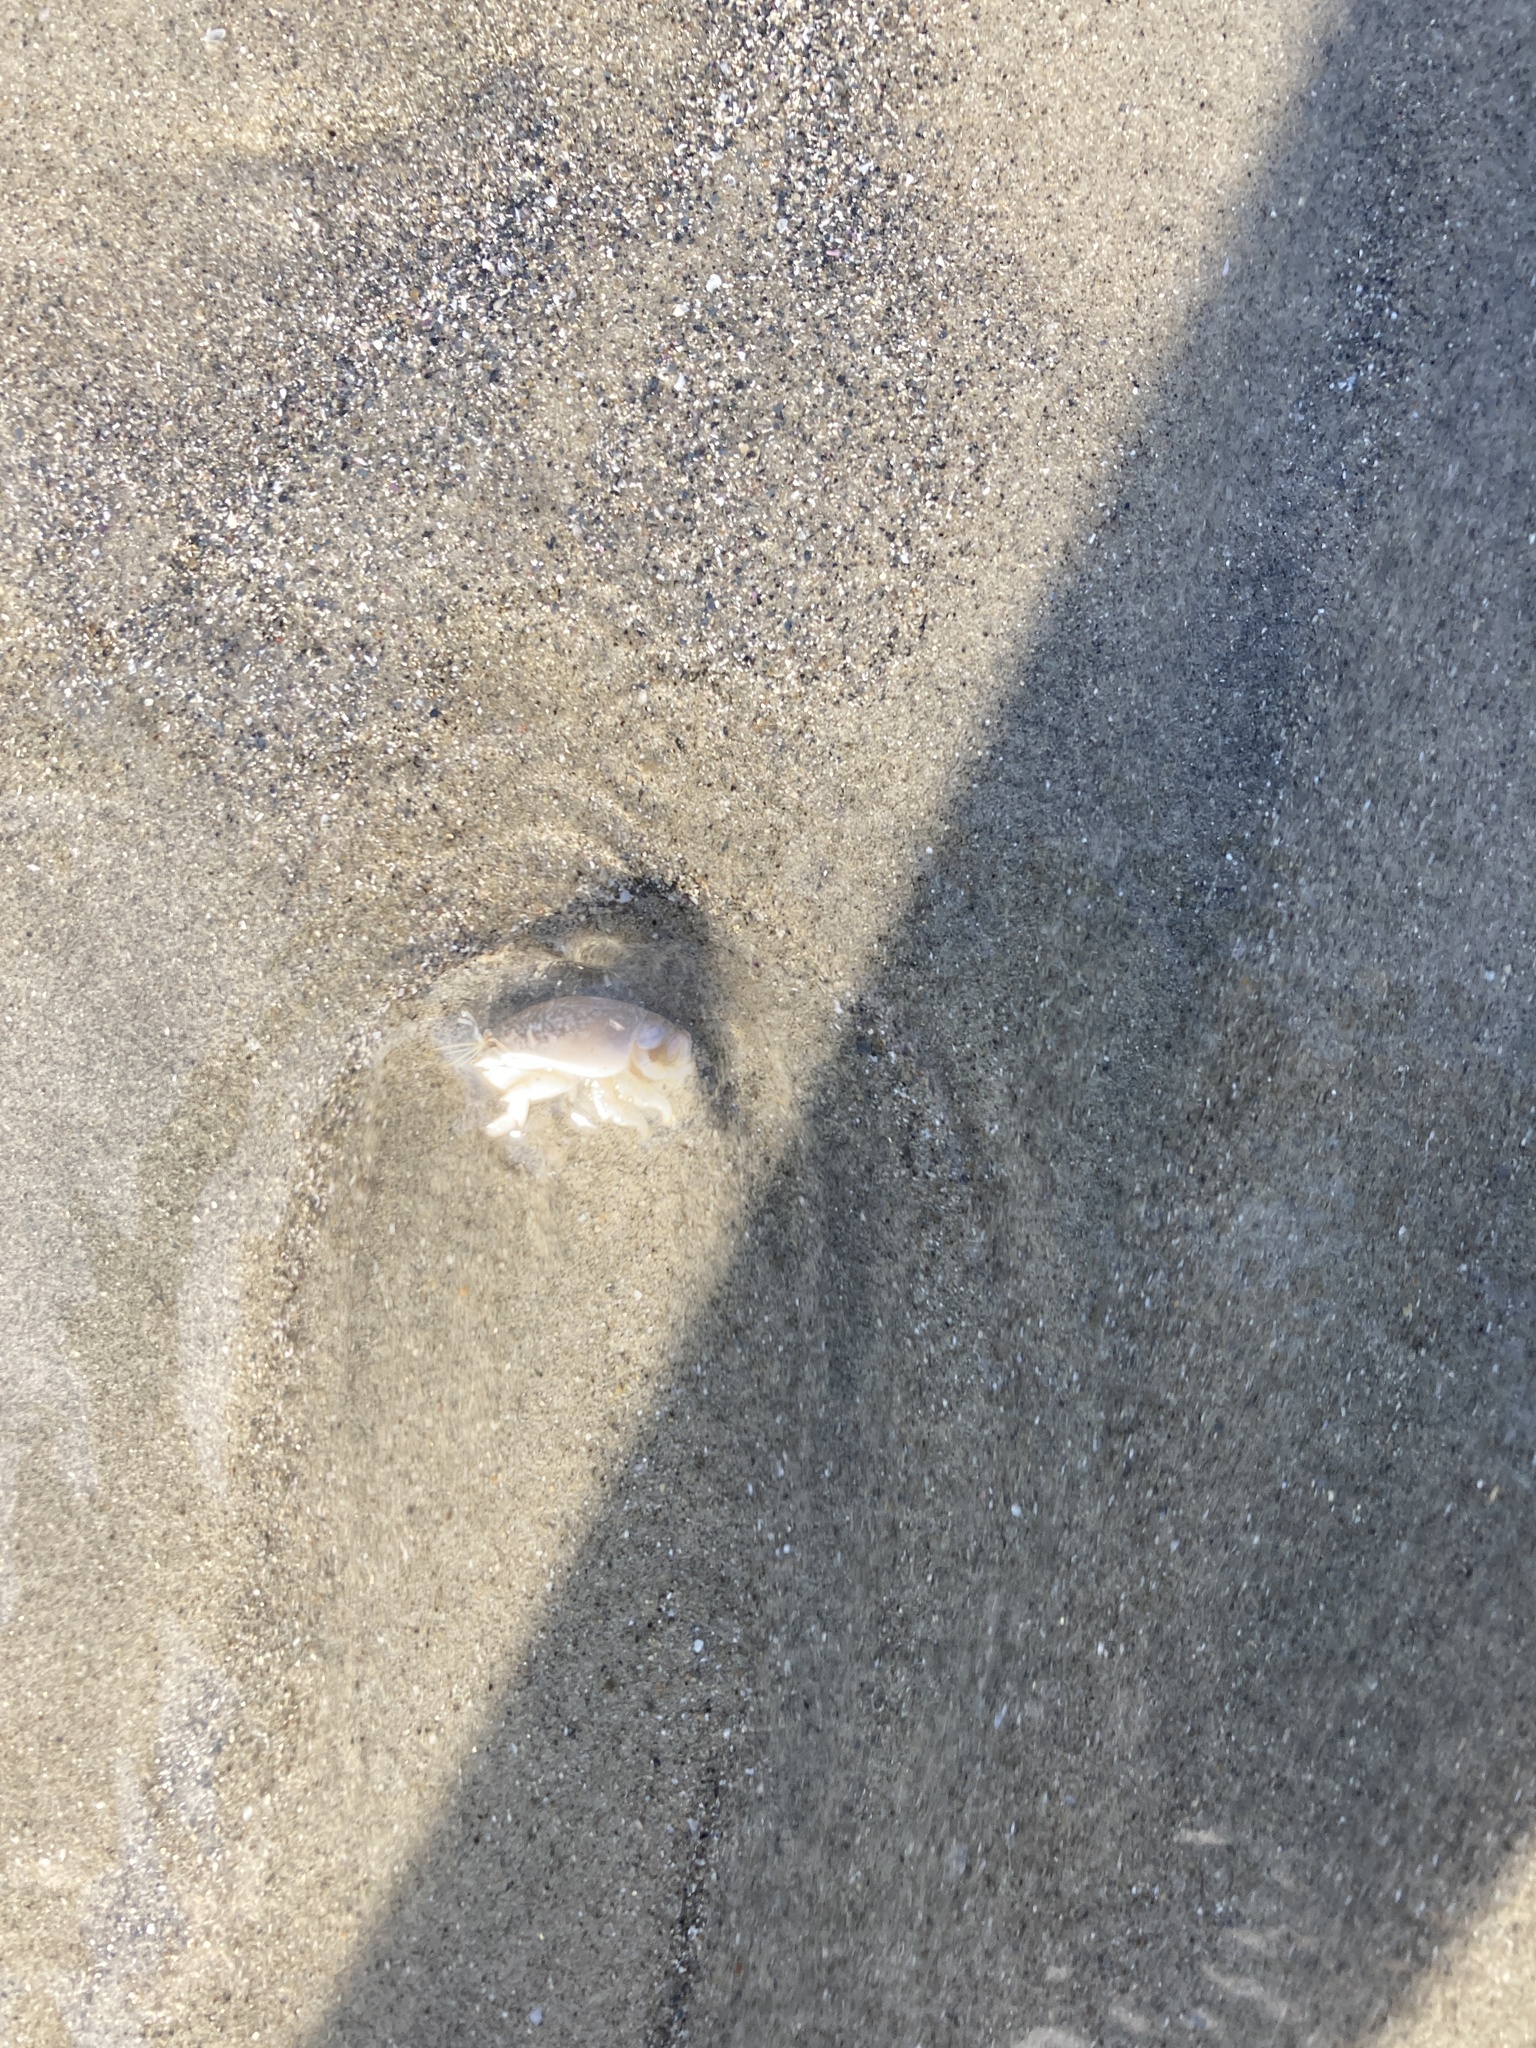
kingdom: Animalia
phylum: Arthropoda
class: Malacostraca
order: Decapoda
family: Hippidae
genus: Emerita
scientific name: Emerita analoga
